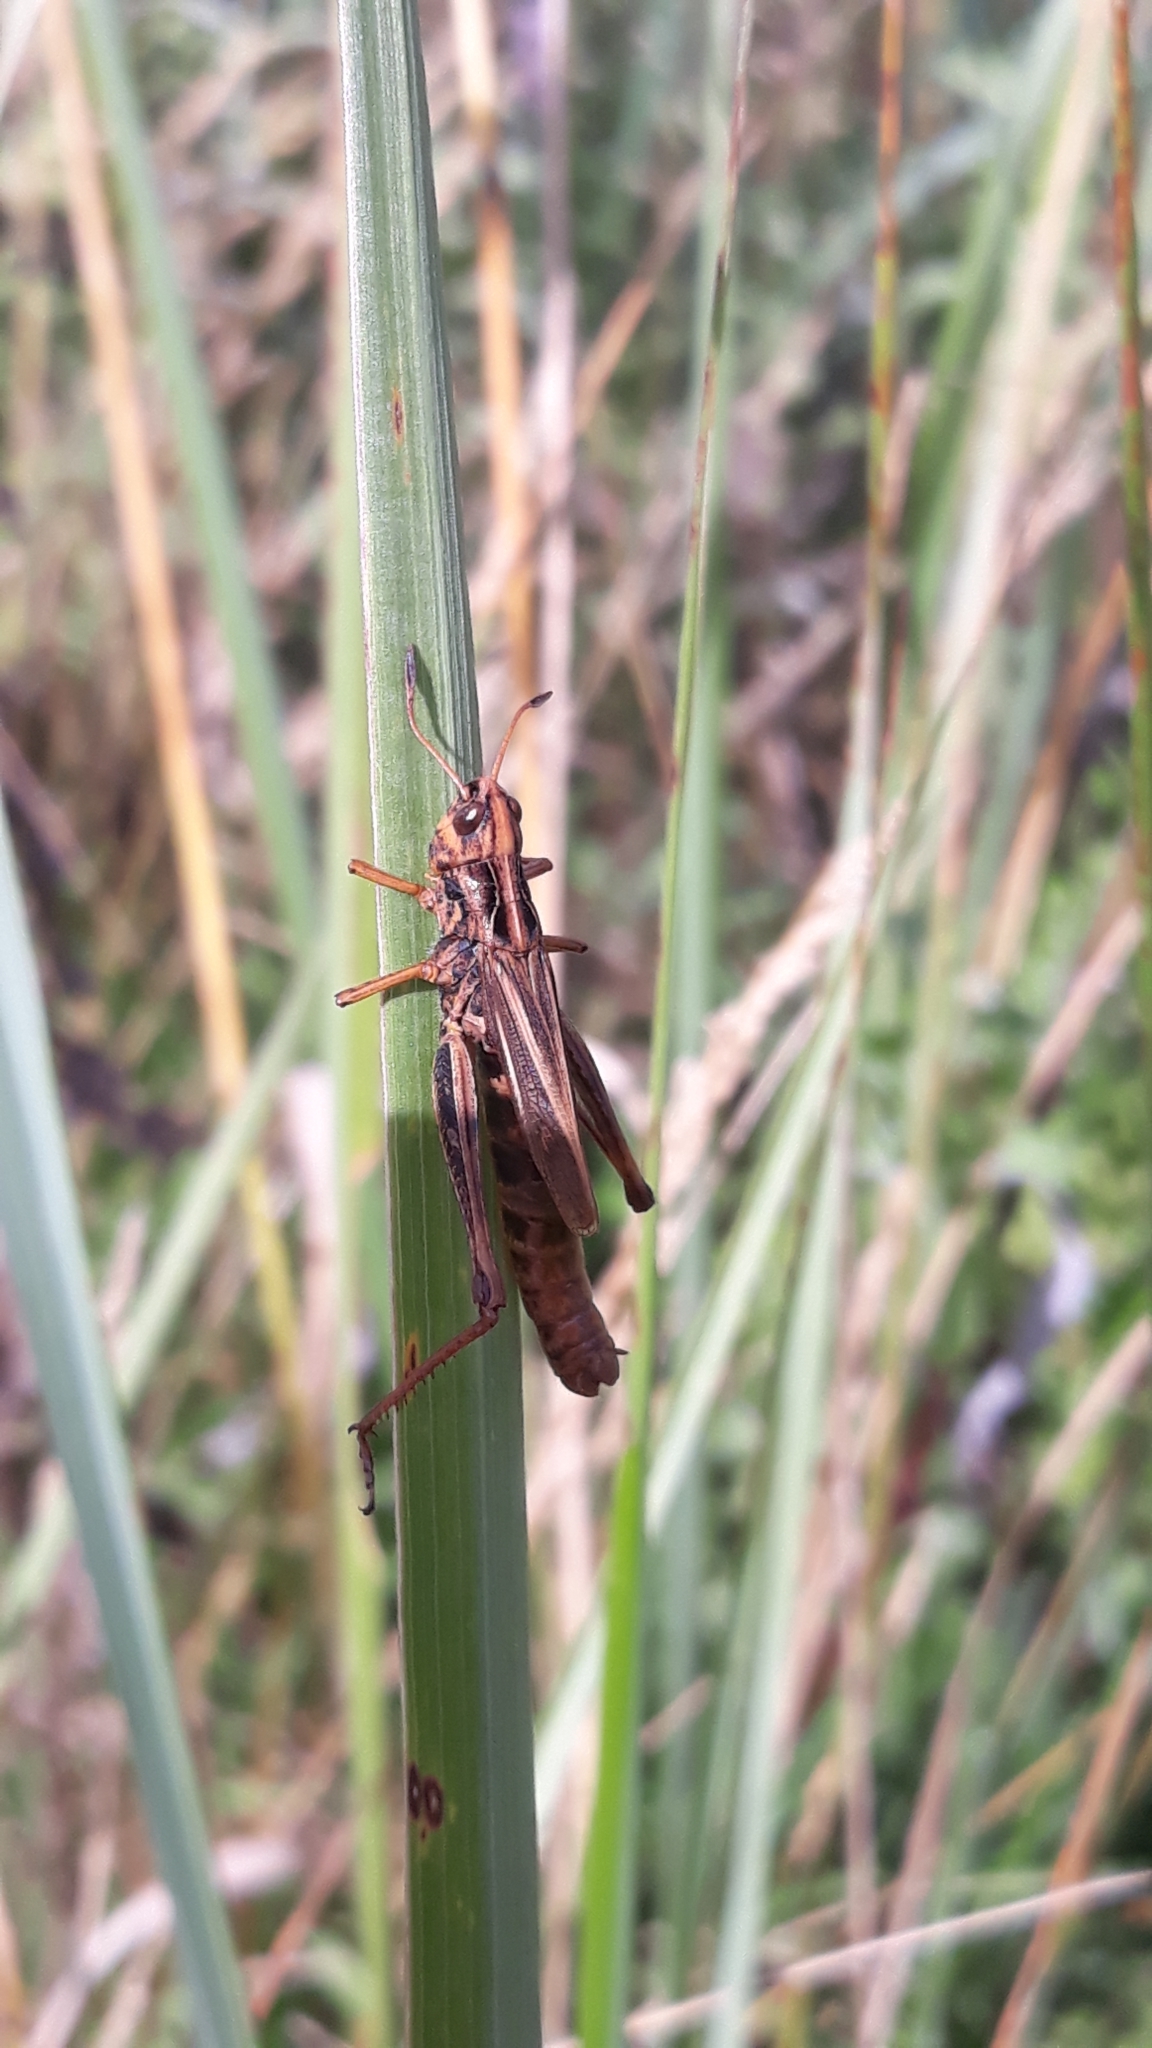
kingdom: Animalia
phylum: Arthropoda
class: Insecta
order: Orthoptera
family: Acrididae
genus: Gomphocerippus
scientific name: Gomphocerippus rufus
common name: Rufous grasshopper
